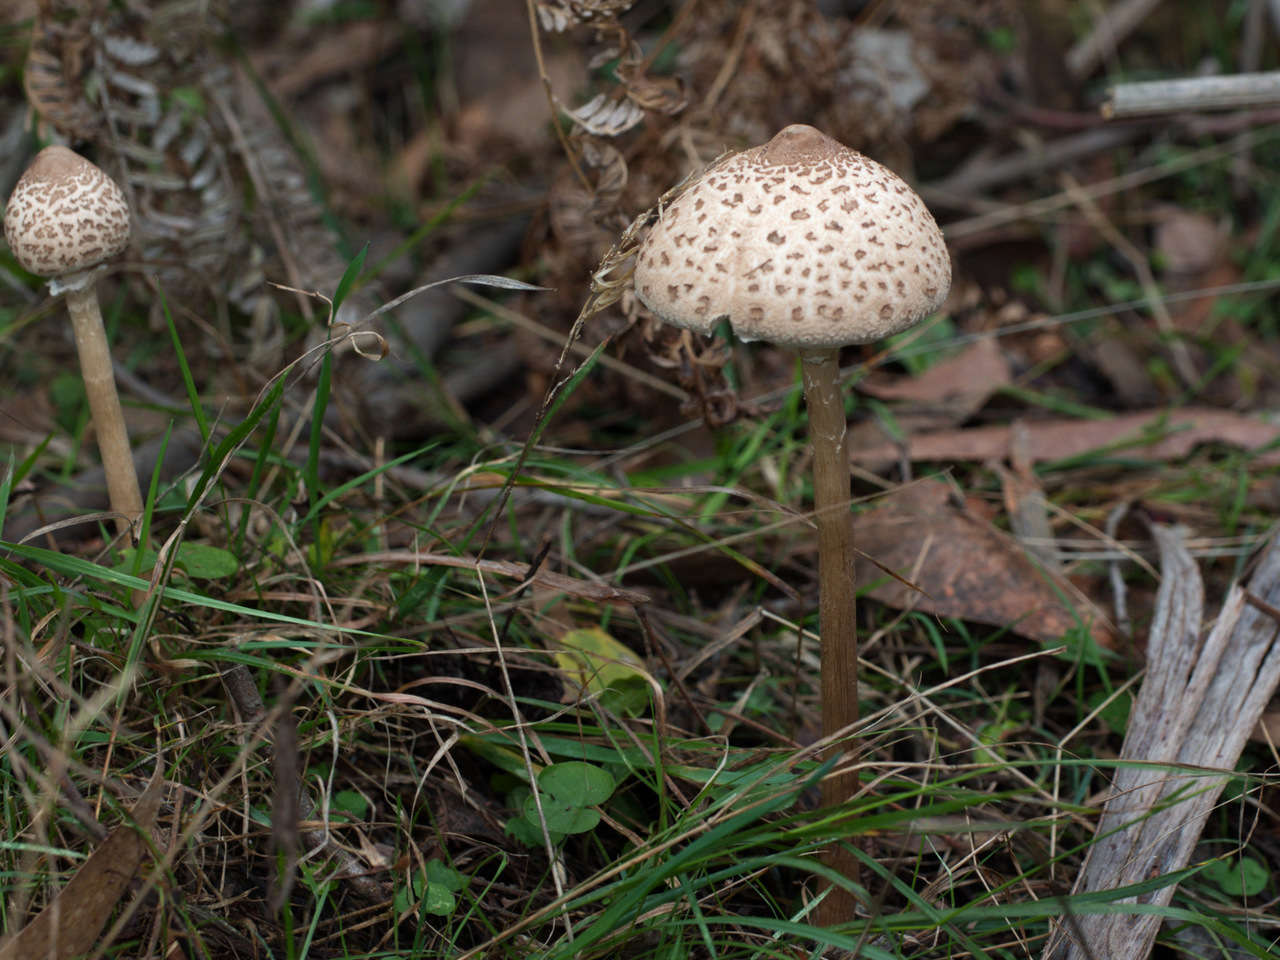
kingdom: Fungi
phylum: Basidiomycota
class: Agaricomycetes
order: Agaricales
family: Agaricaceae
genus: Macrolepiota
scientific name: Macrolepiota clelandii
